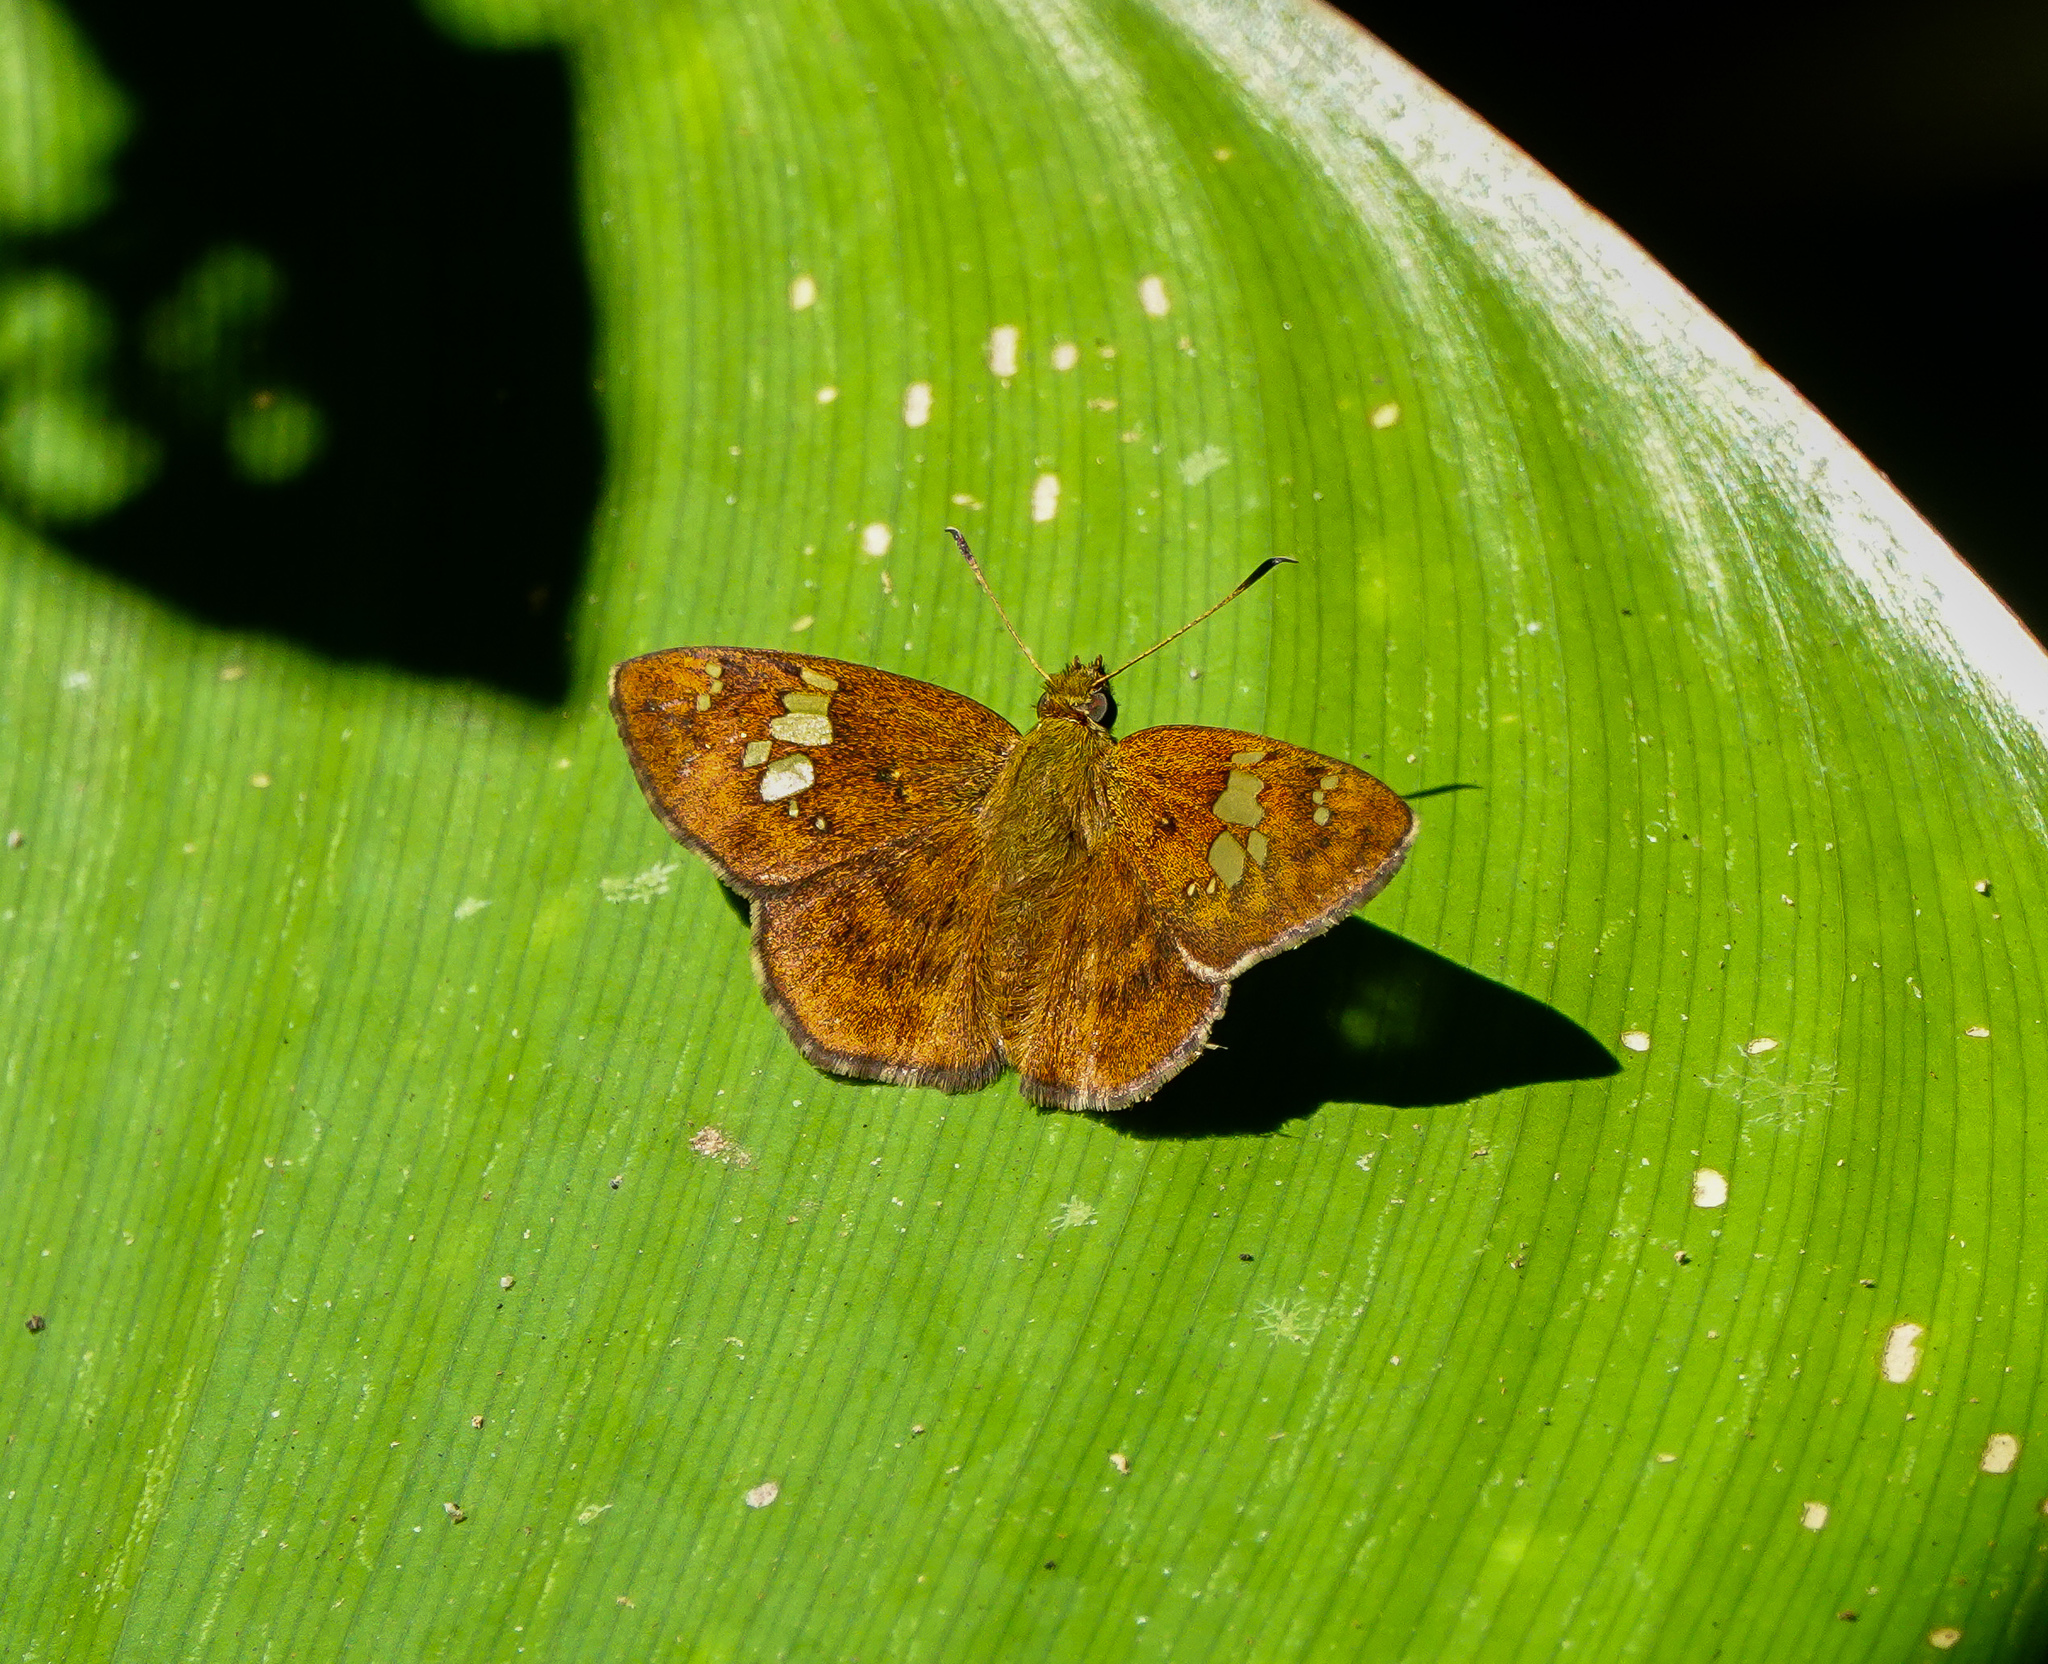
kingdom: Animalia
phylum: Arthropoda
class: Insecta
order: Lepidoptera
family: Hesperiidae
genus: Pseudocoladenia
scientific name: Pseudocoladenia dan
